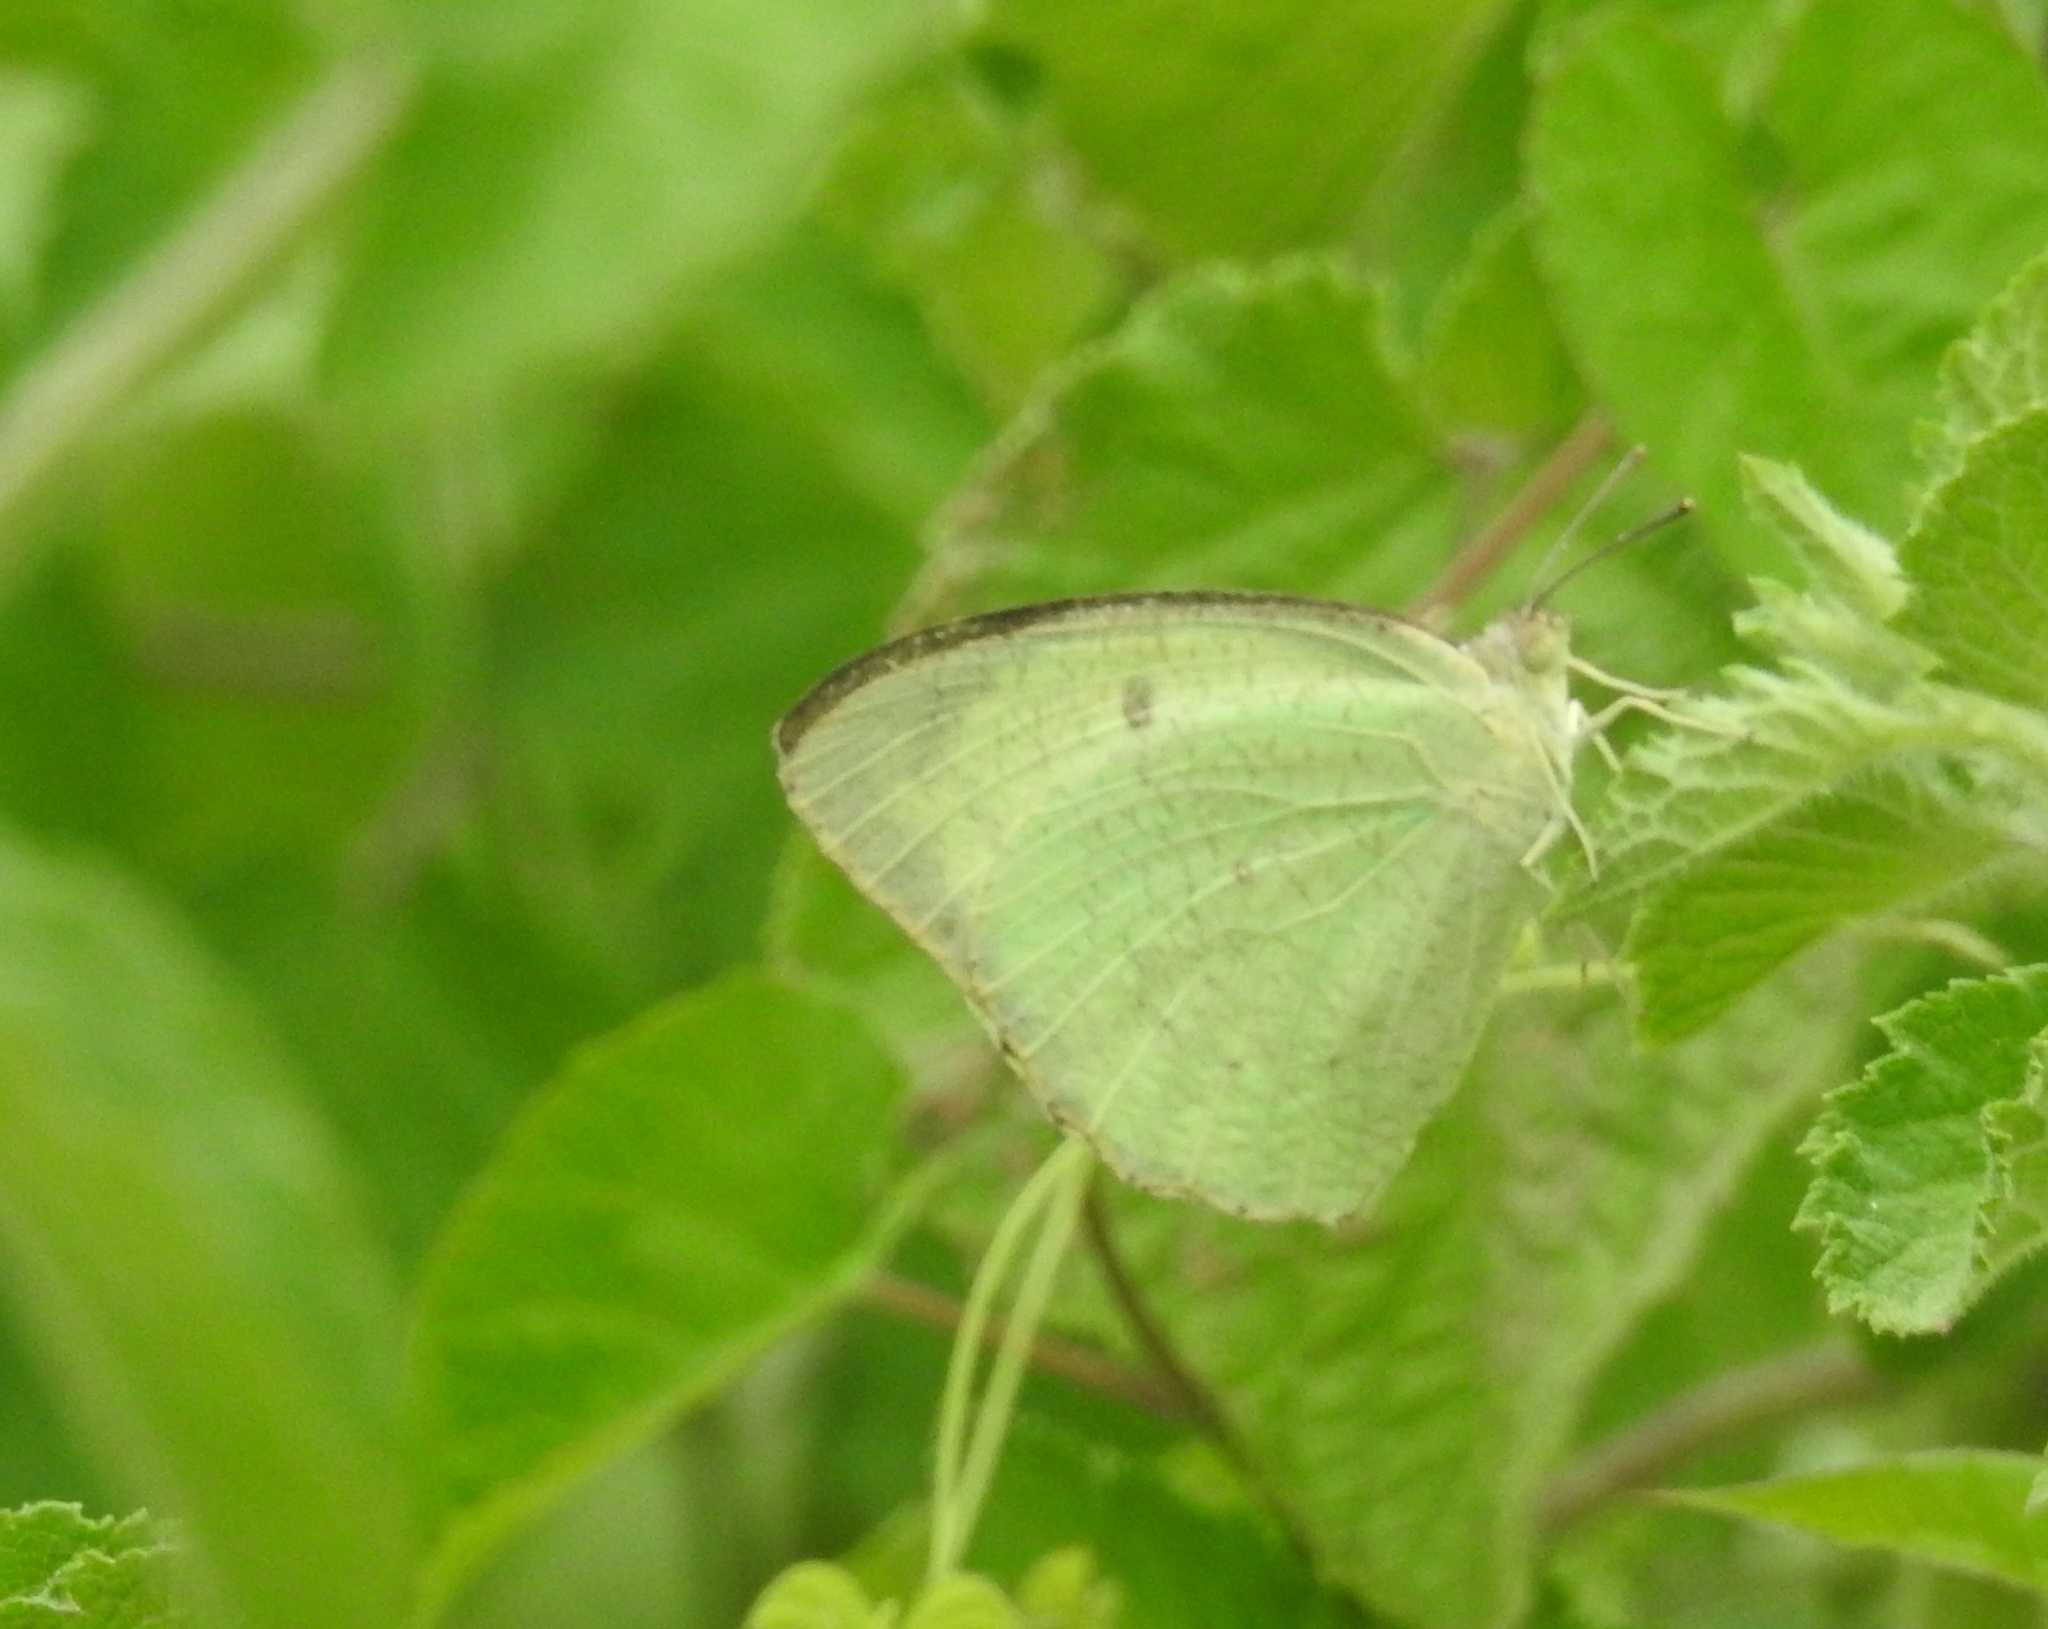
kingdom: Animalia
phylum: Arthropoda
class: Insecta
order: Lepidoptera
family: Pieridae
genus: Catopsilia
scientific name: Catopsilia pyranthe
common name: Mottled emigrant
